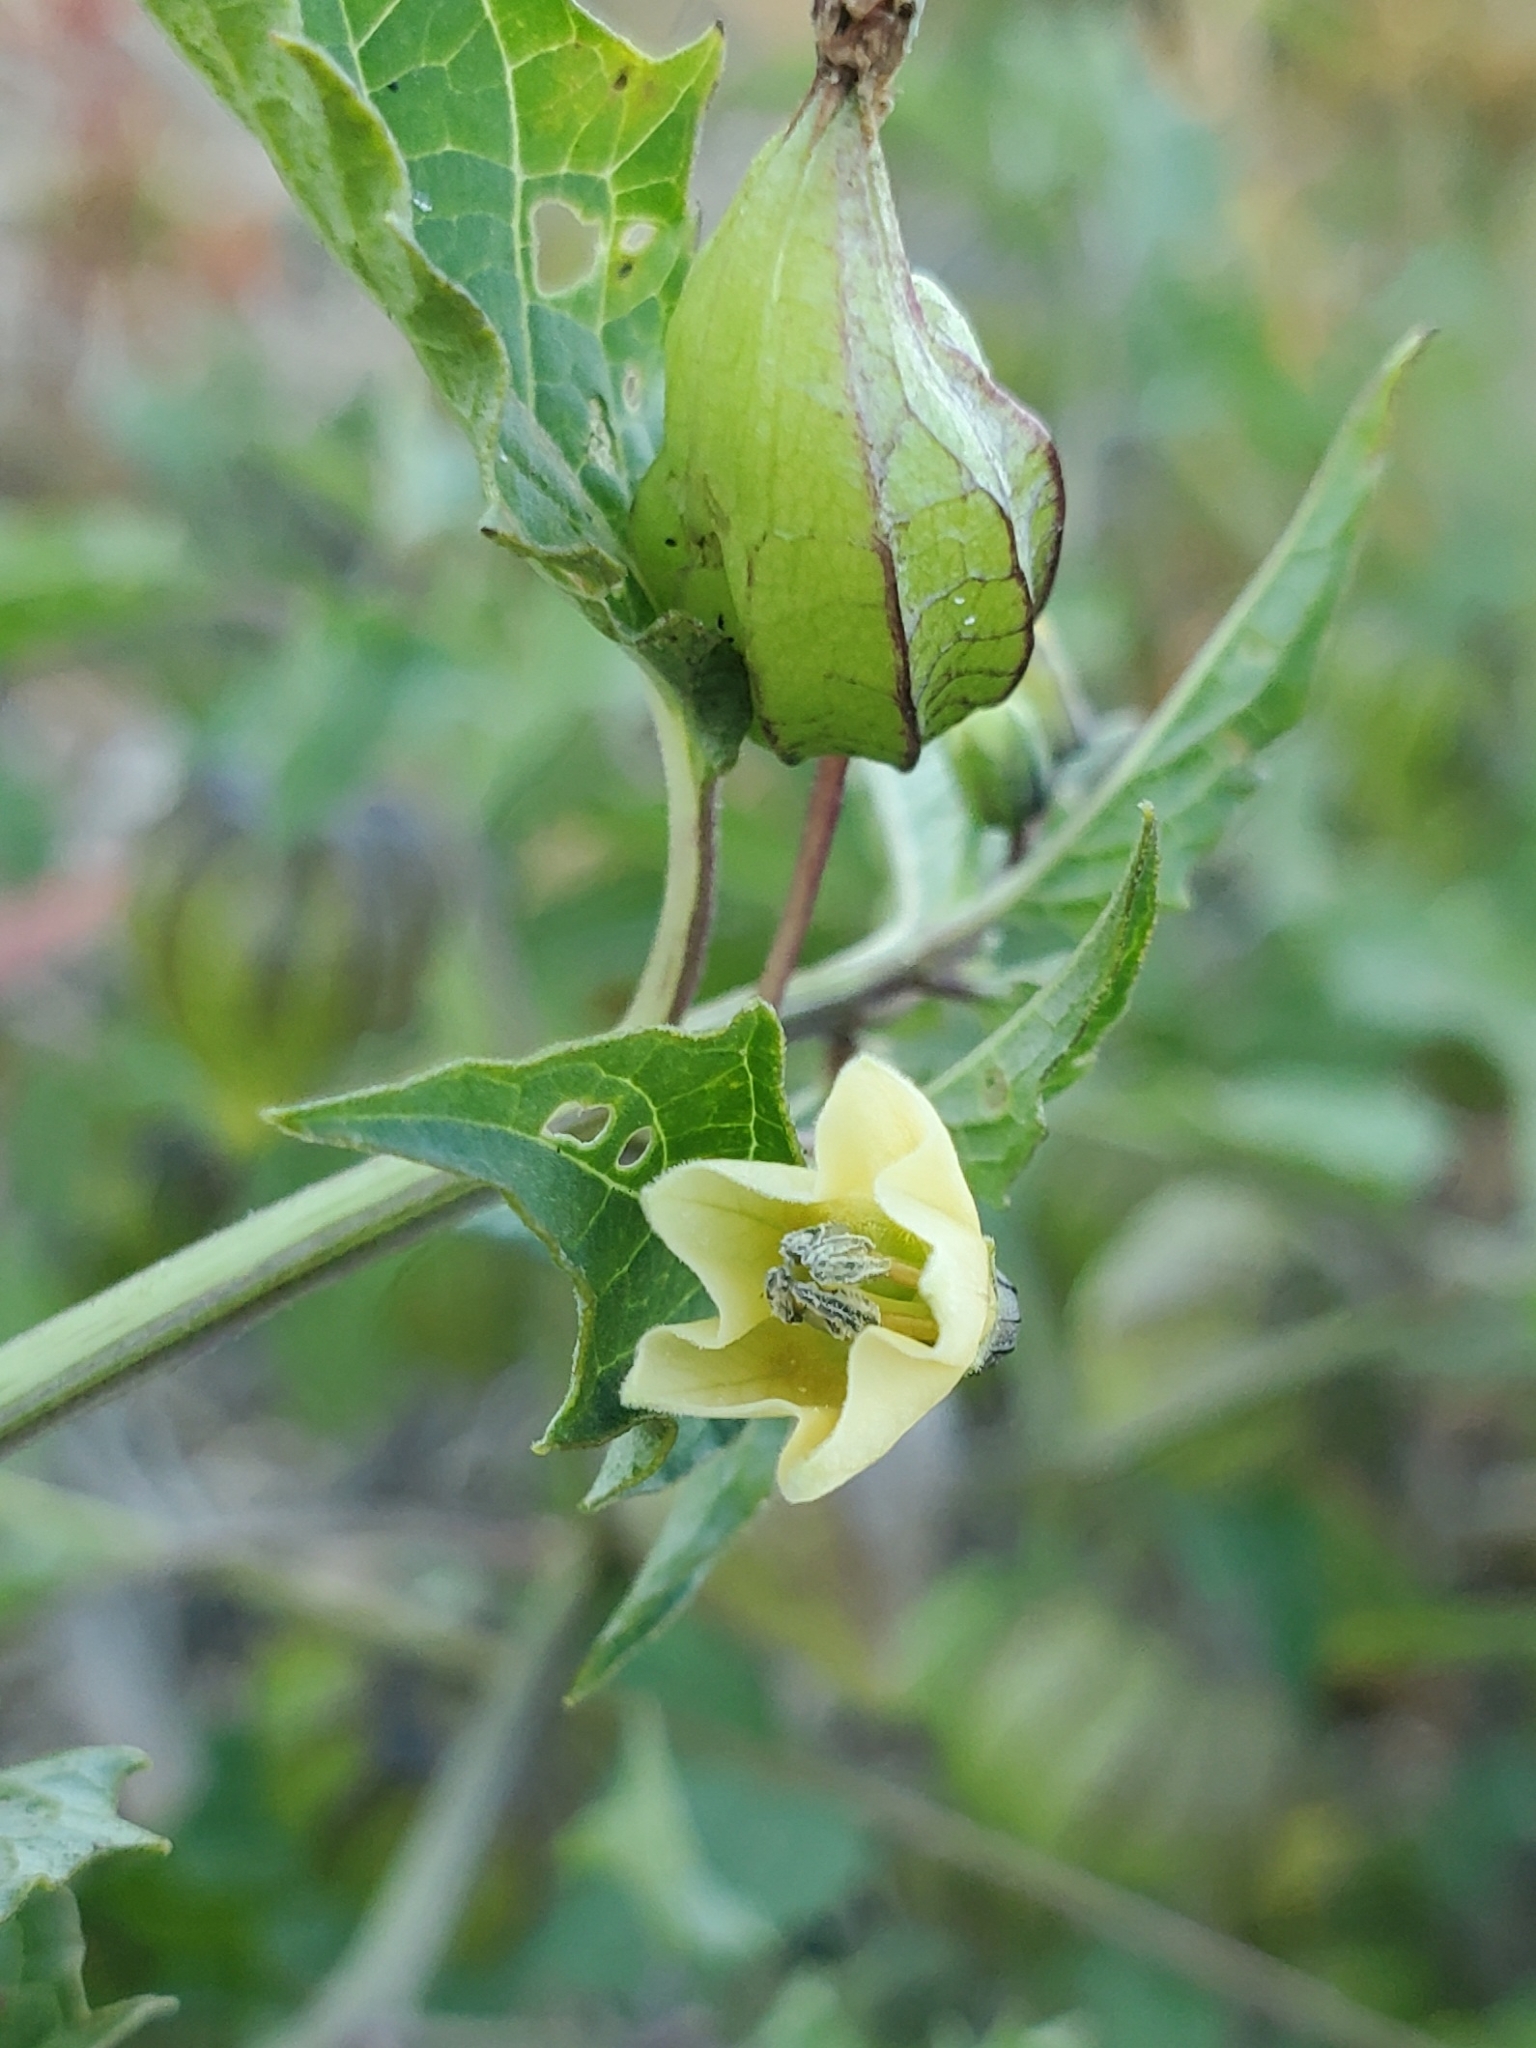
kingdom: Plantae
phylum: Tracheophyta
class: Magnoliopsida
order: Solanales
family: Solanaceae
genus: Physalis
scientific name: Physalis angulata
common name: Angular winter-cherry
